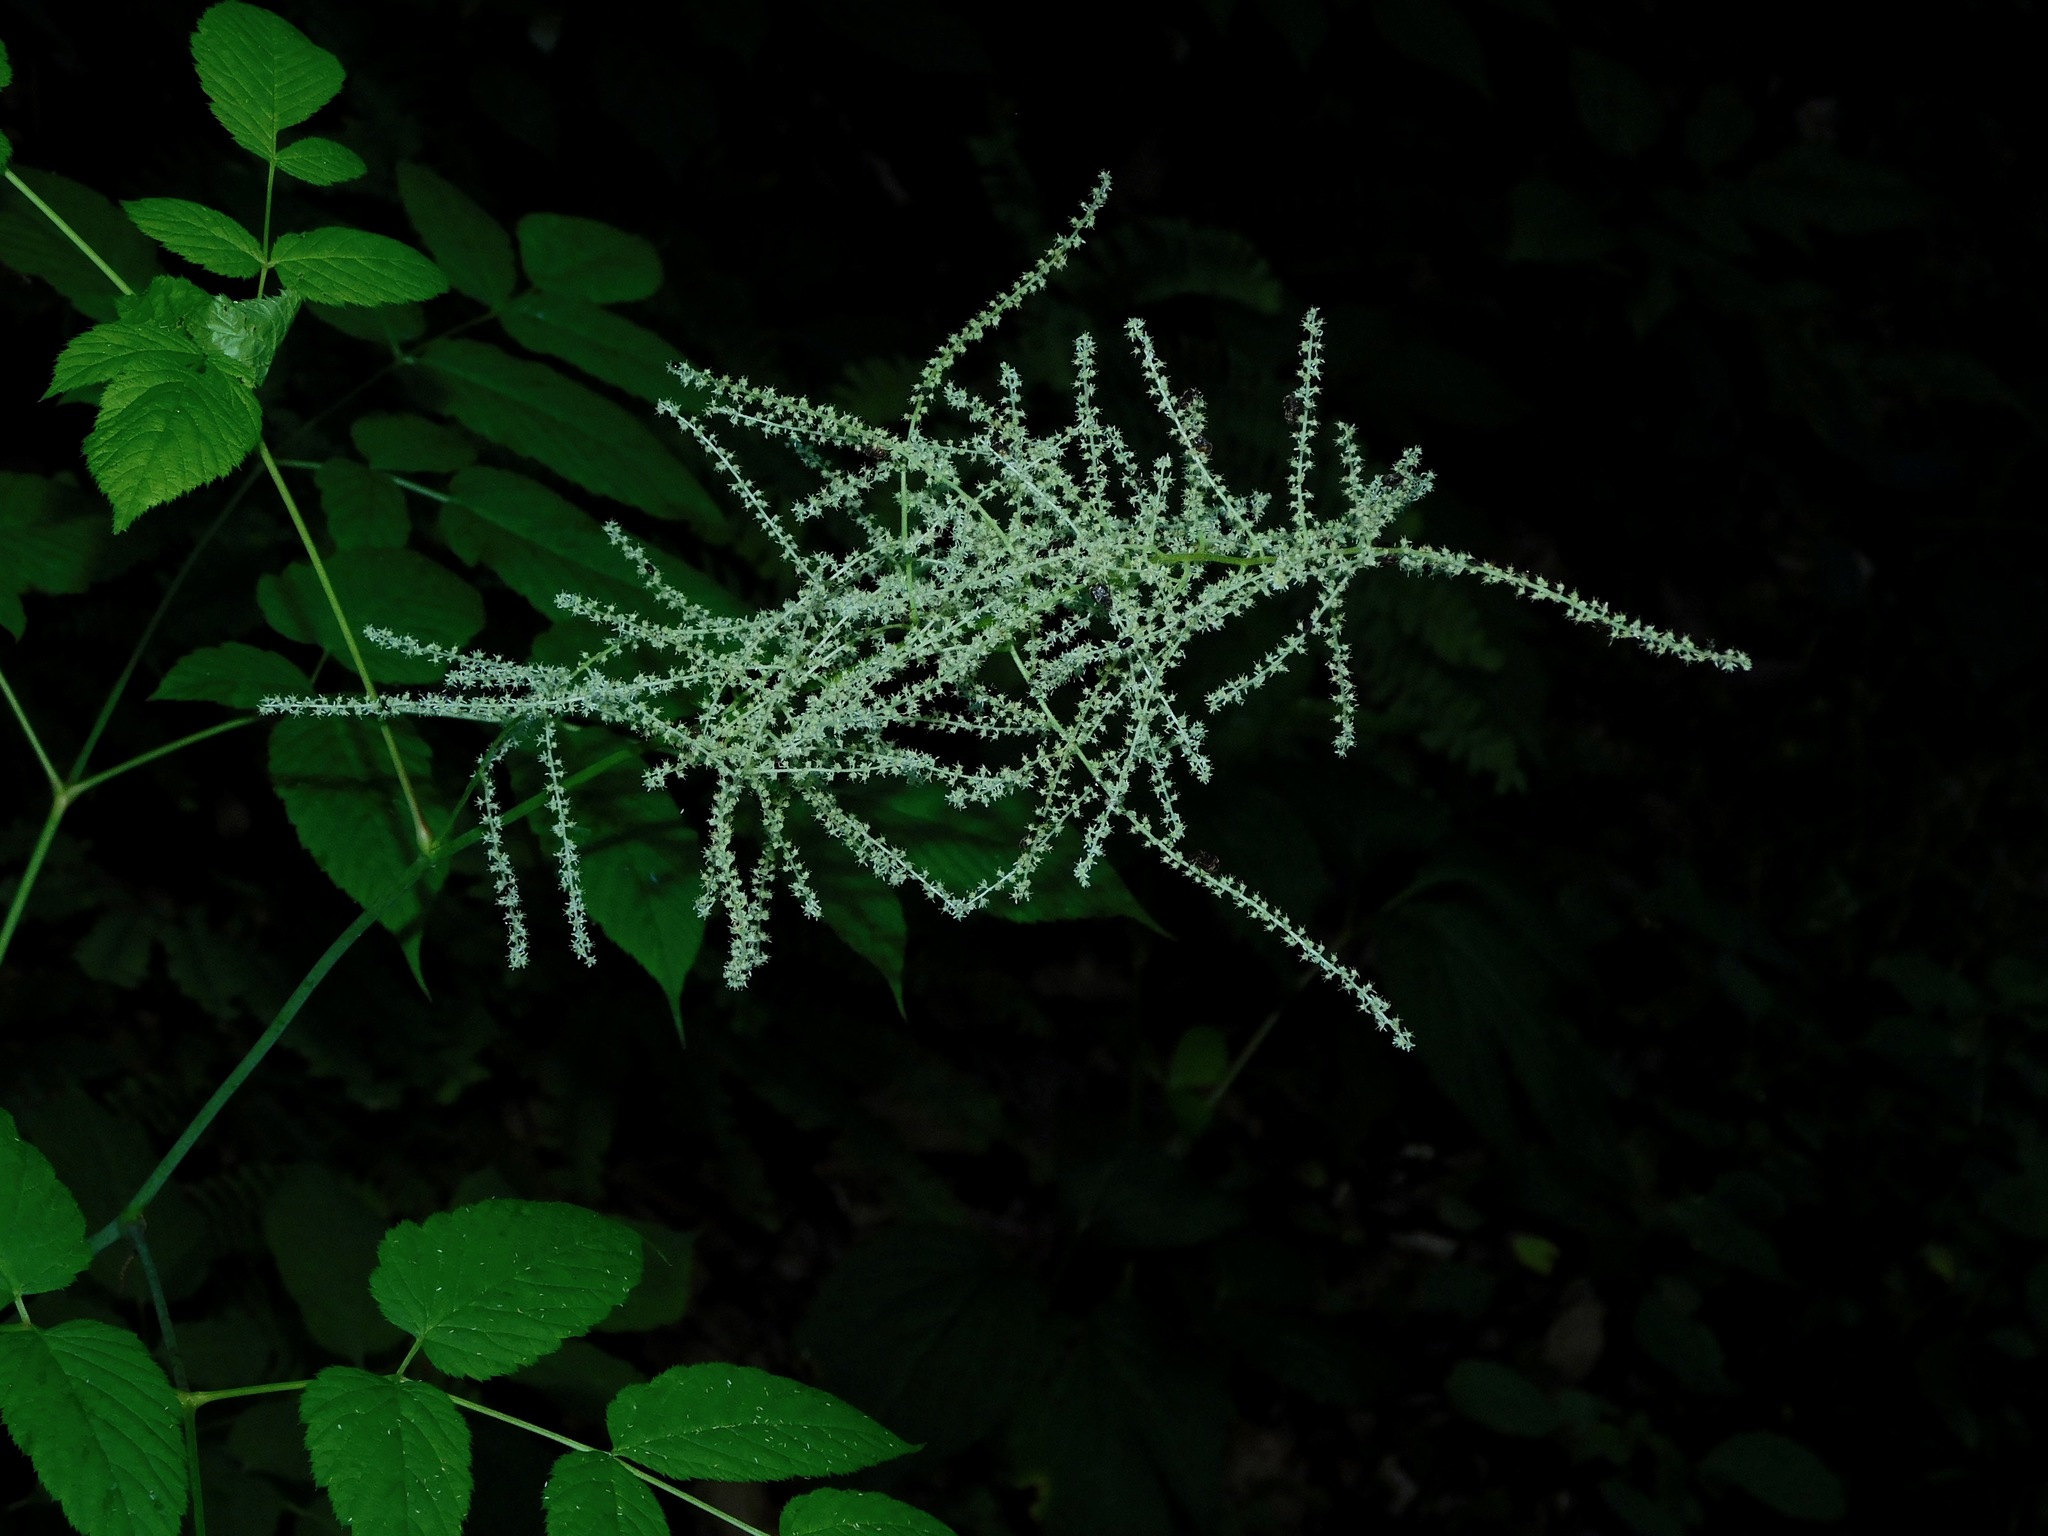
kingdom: Plantae
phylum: Tracheophyta
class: Magnoliopsida
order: Rosales
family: Rosaceae
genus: Aruncus
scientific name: Aruncus dioicus
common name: Buck's-beard
